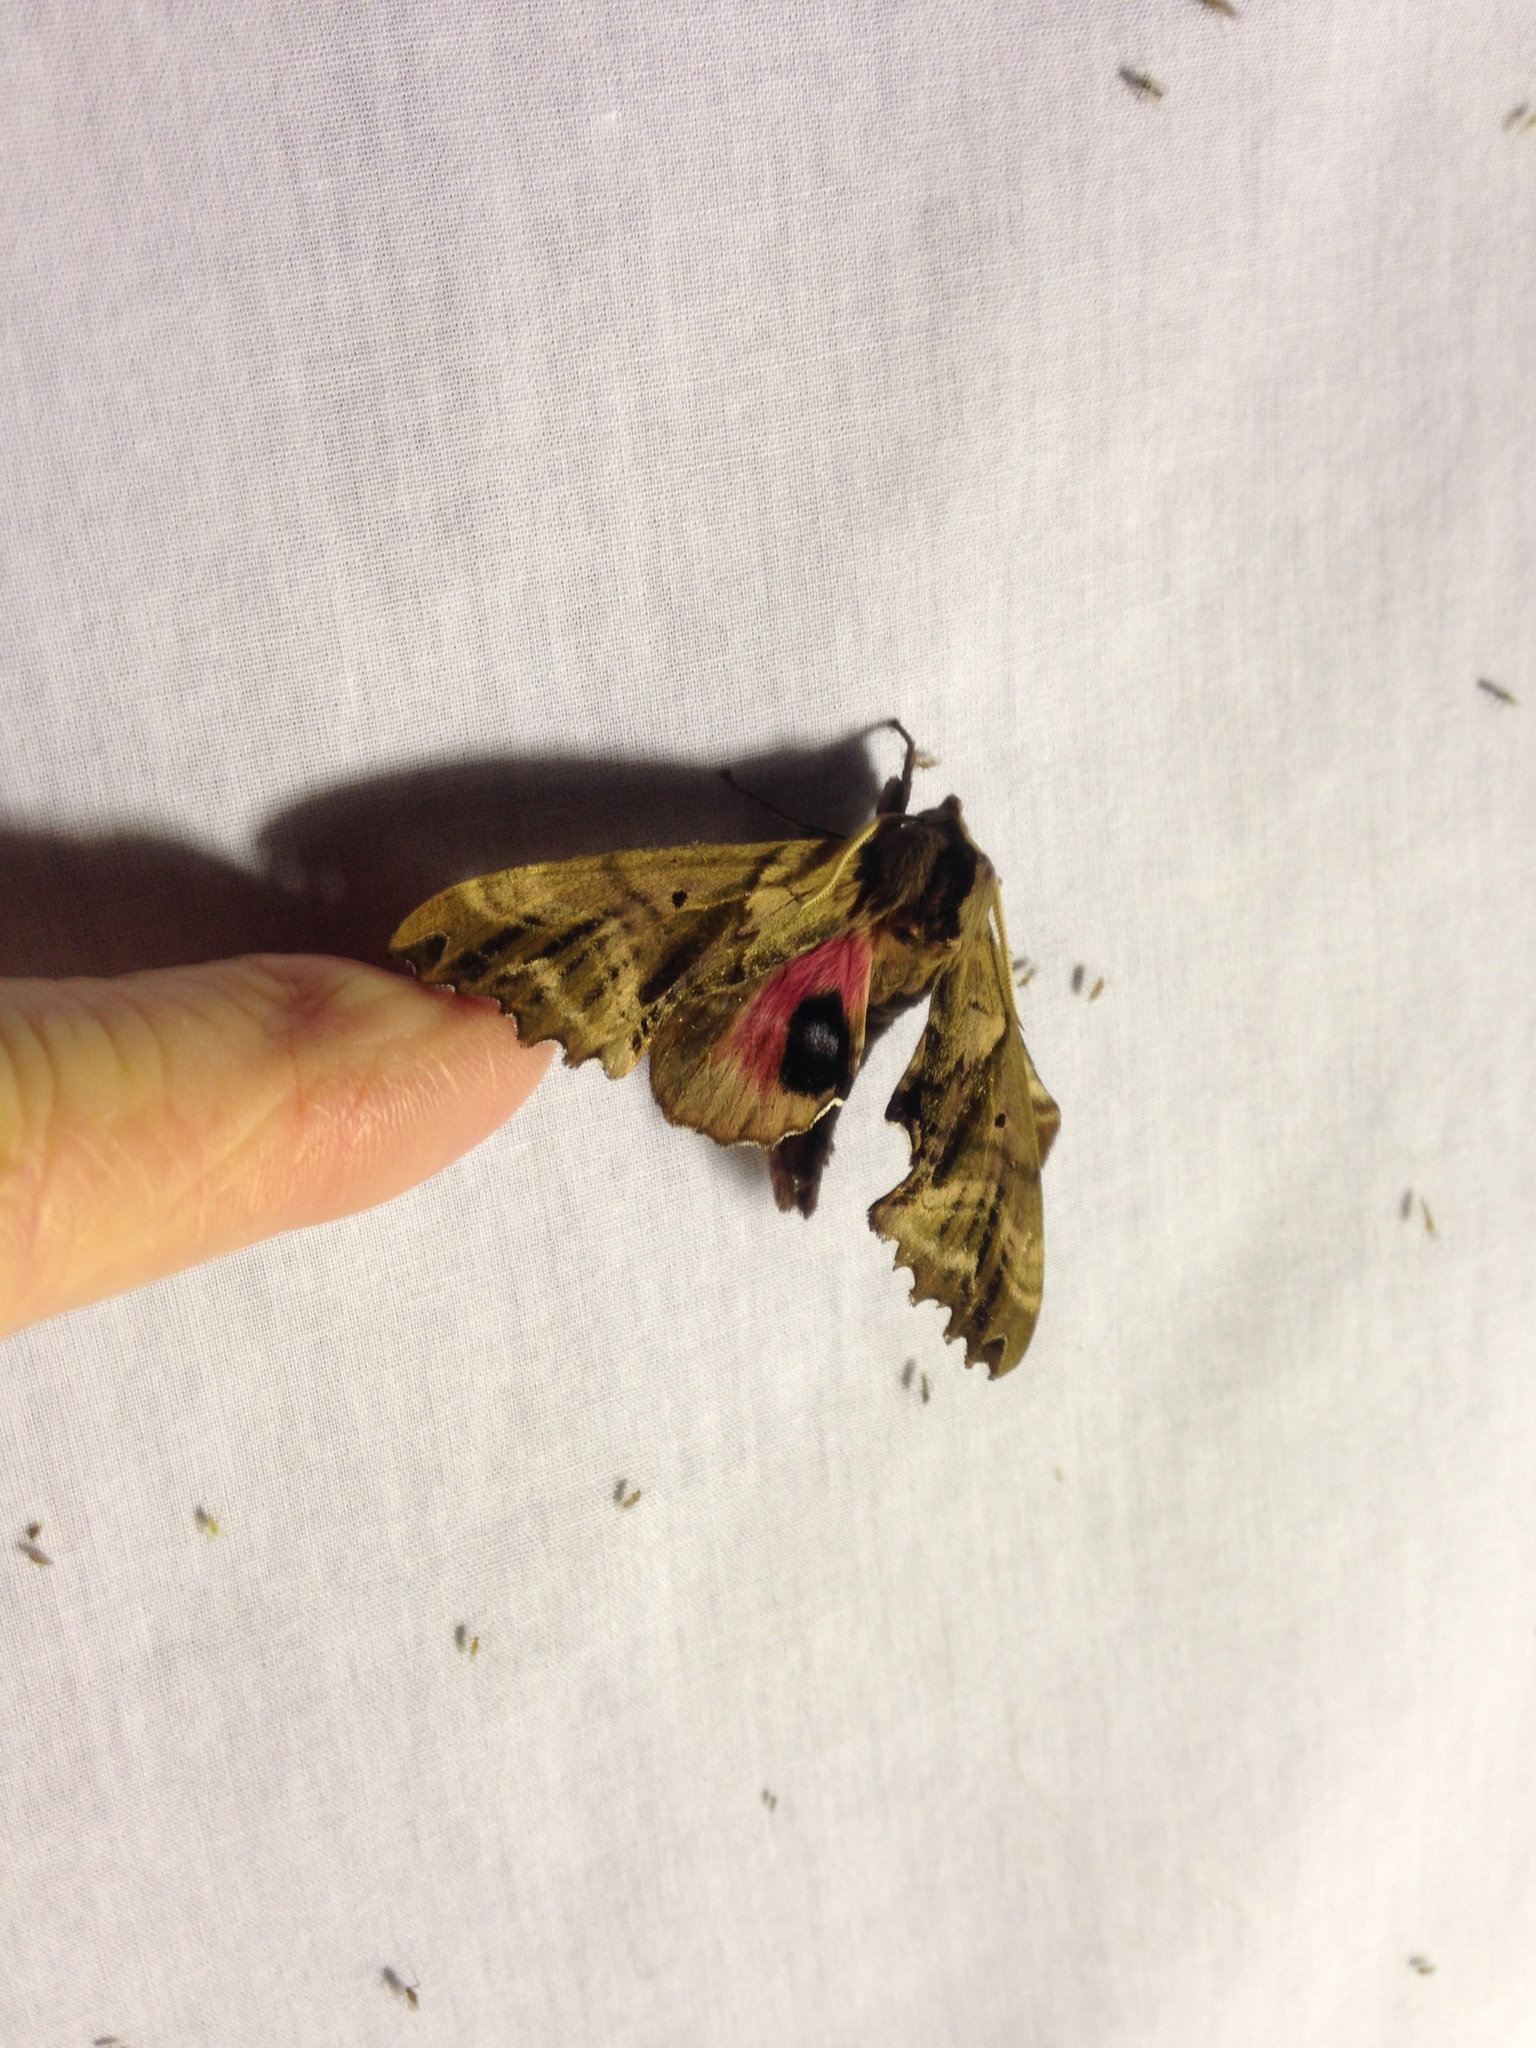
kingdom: Animalia
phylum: Arthropoda
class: Insecta
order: Lepidoptera
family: Sphingidae
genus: Paonias
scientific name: Paonias excaecata
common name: Blind-eyed sphinx
